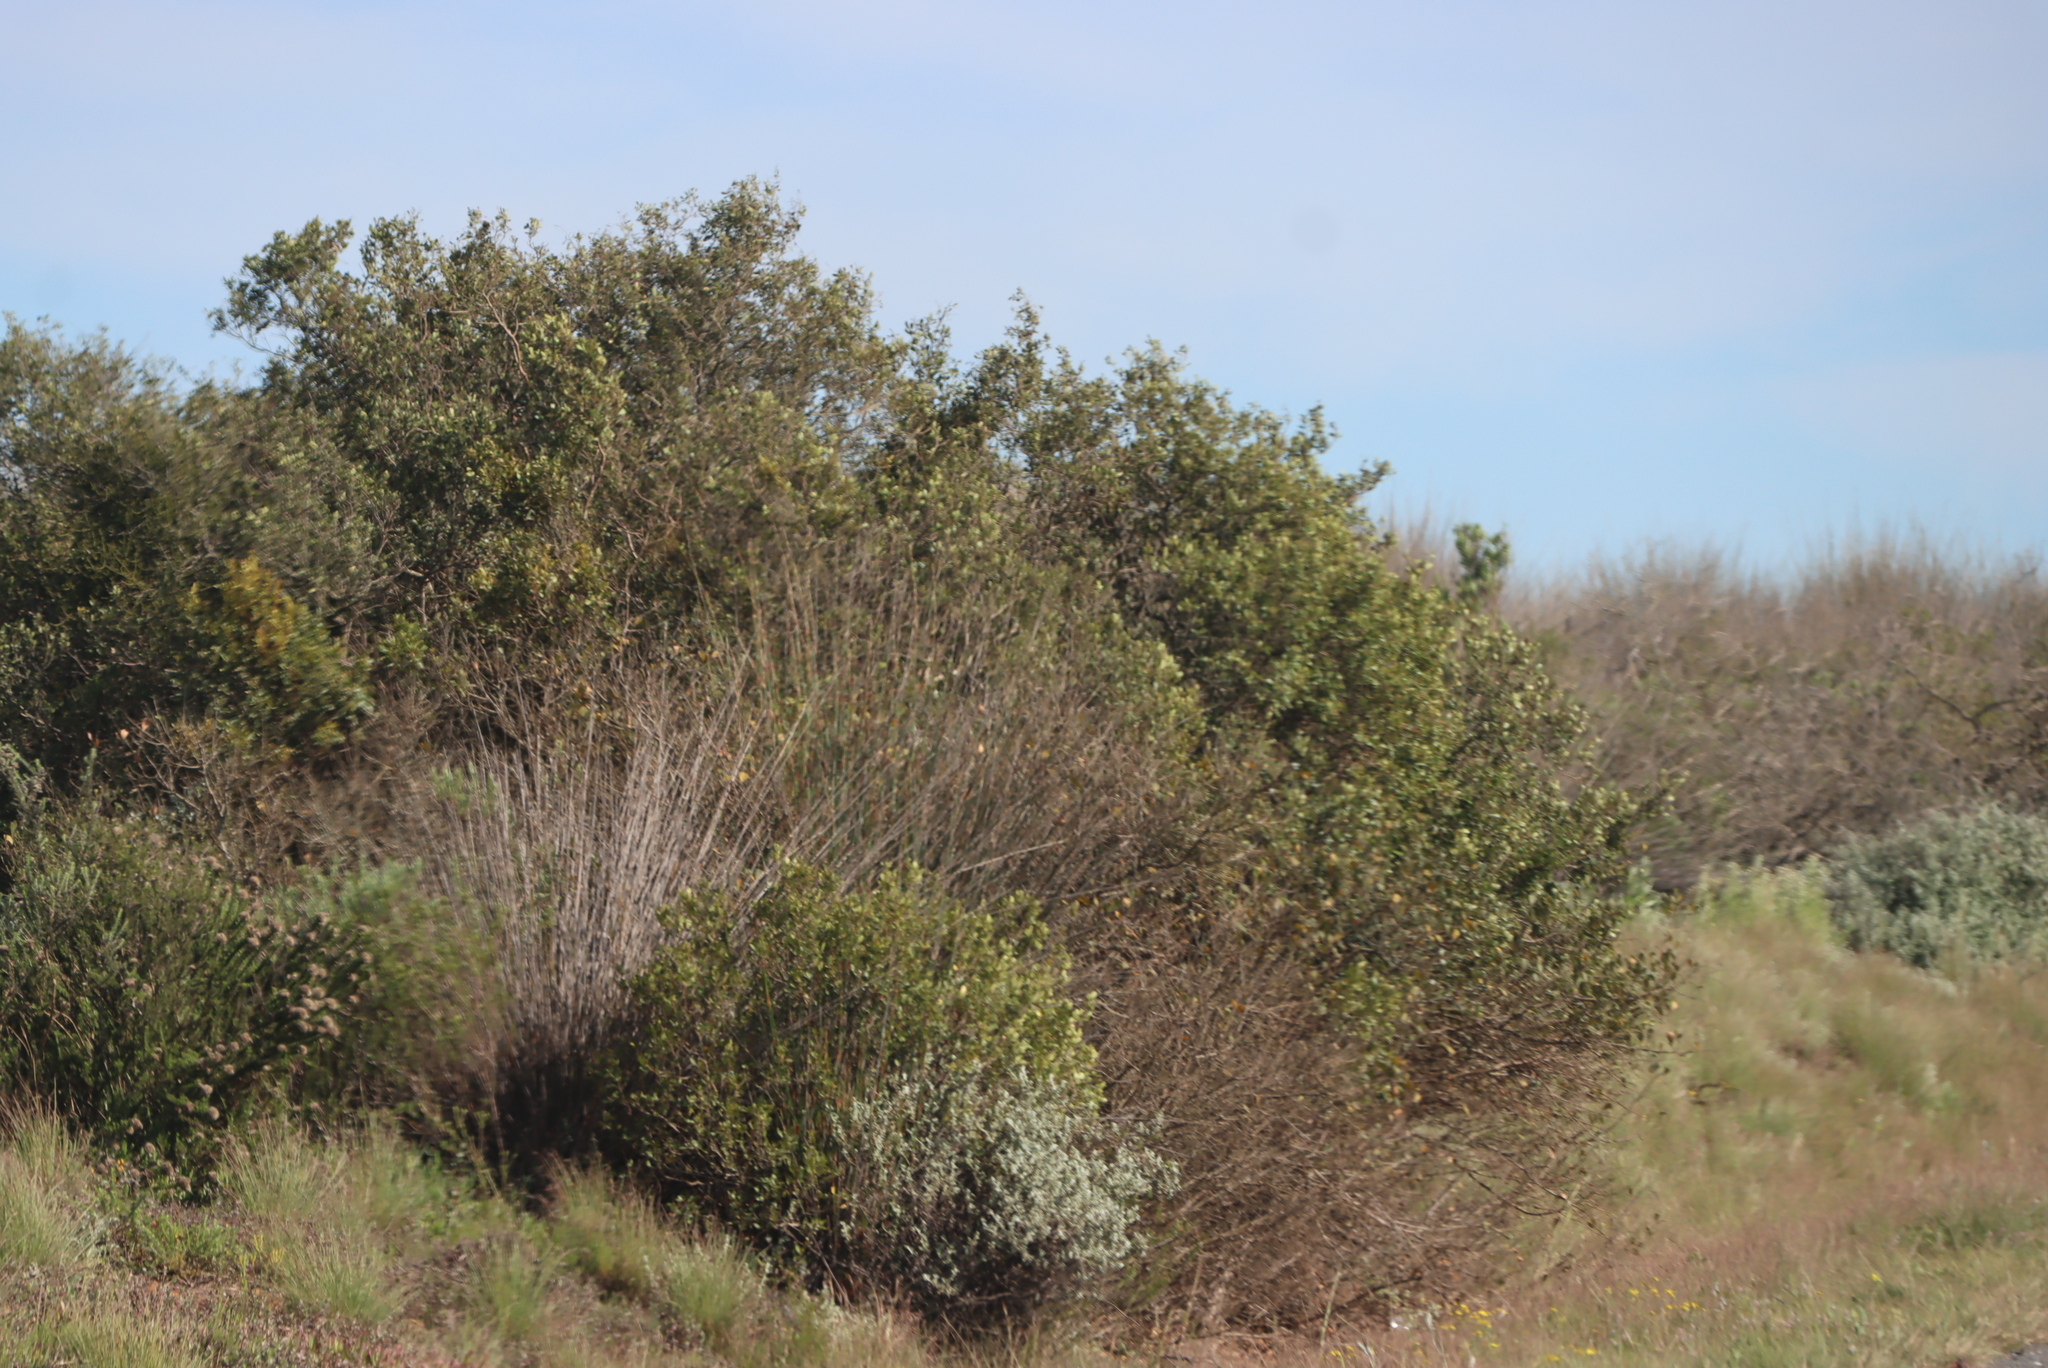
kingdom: Plantae
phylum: Tracheophyta
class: Liliopsida
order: Poales
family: Restionaceae
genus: Thamnochortus
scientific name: Thamnochortus insignis
